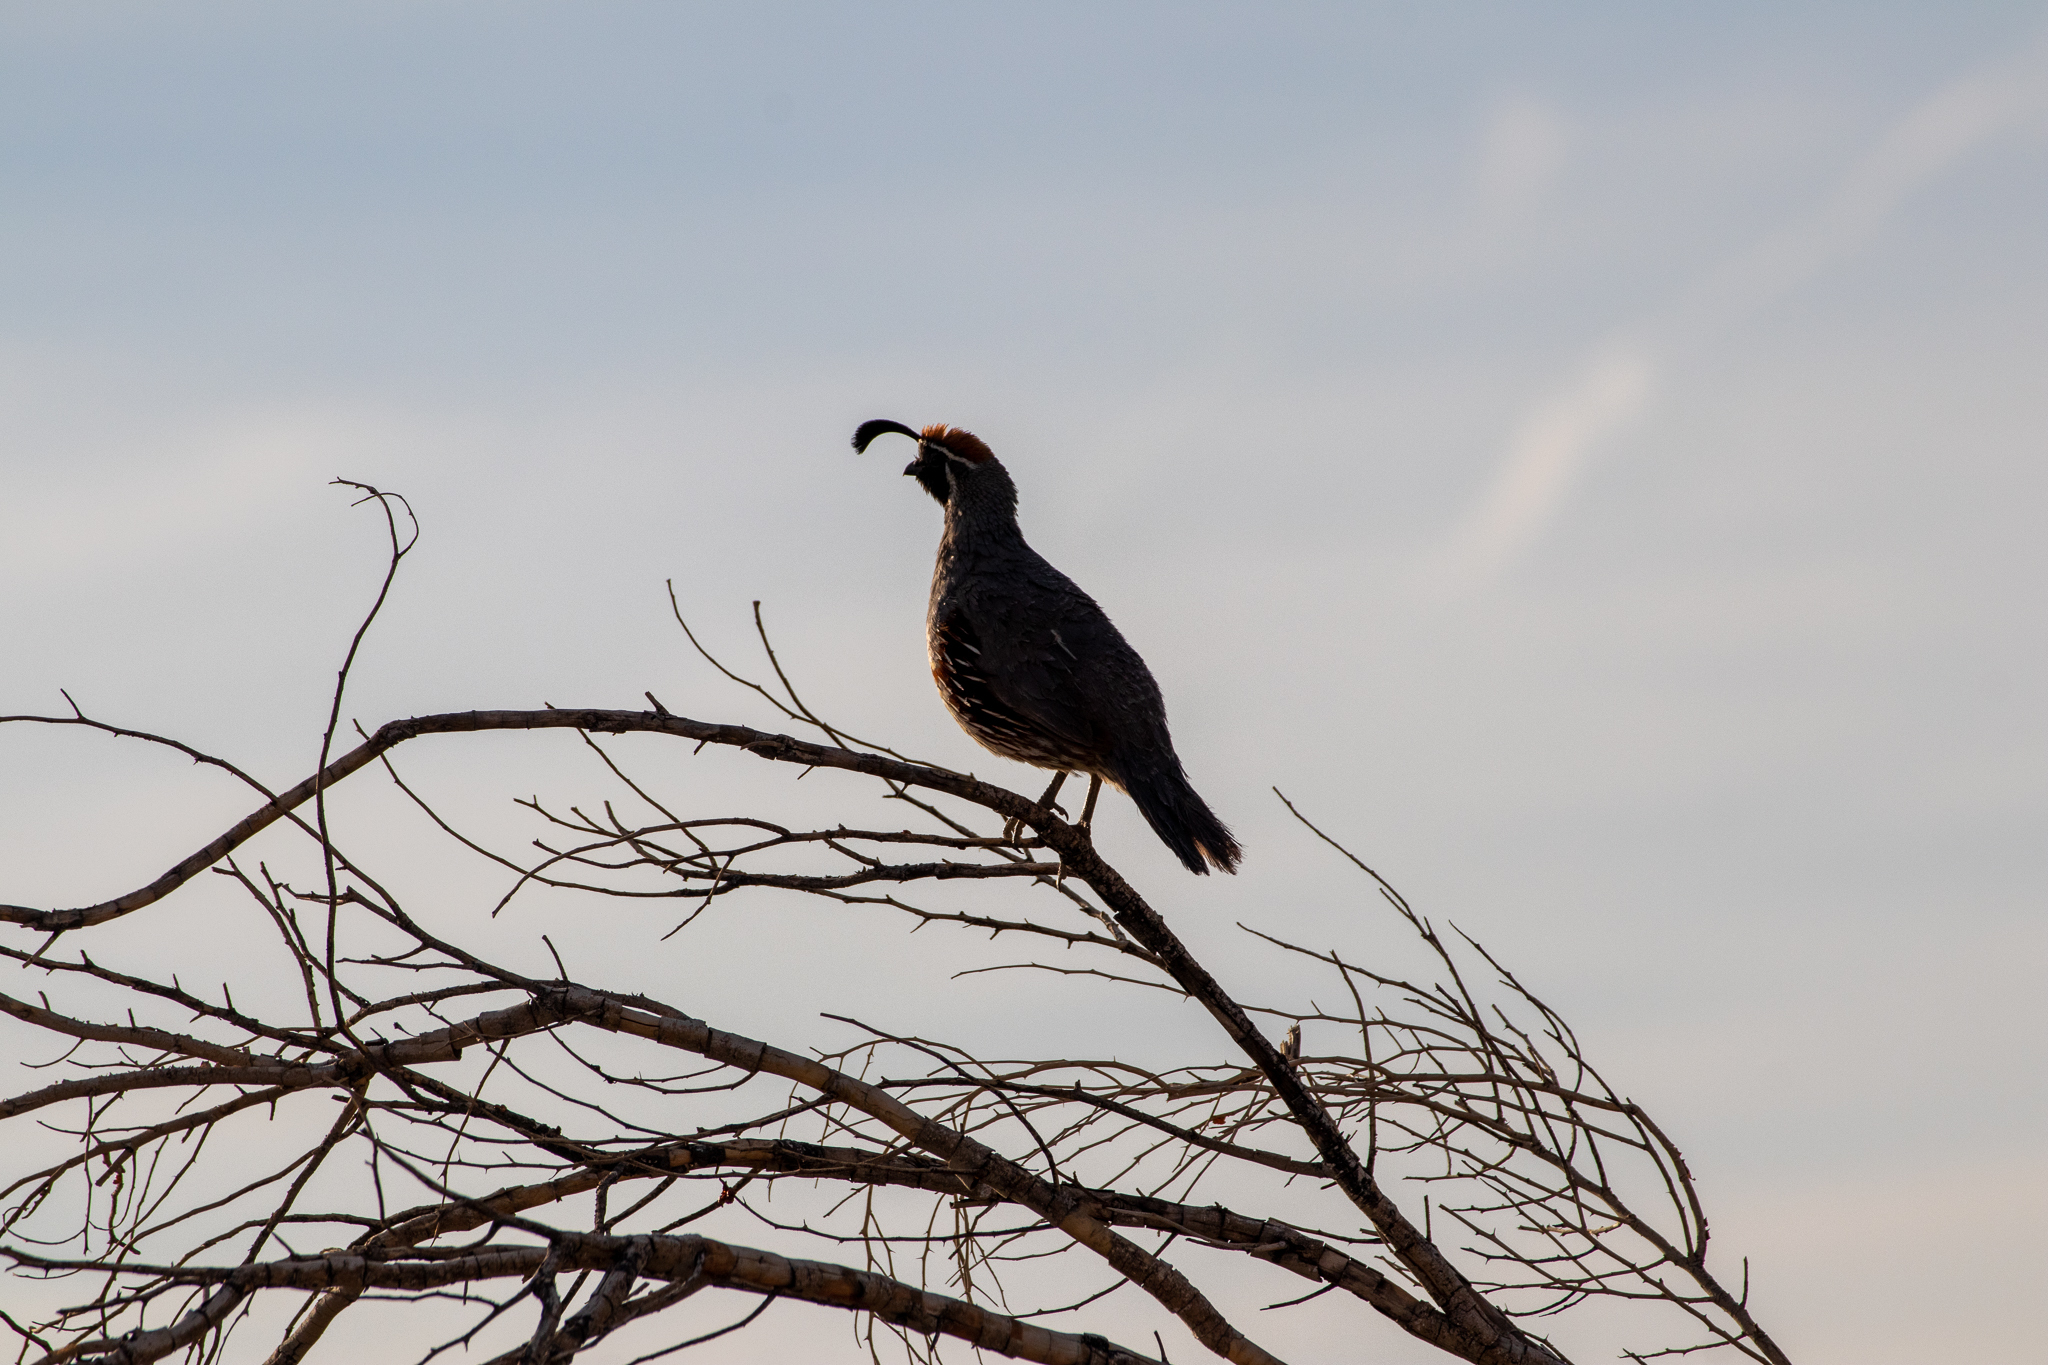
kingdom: Animalia
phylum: Chordata
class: Aves
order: Galliformes
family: Odontophoridae
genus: Callipepla
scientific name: Callipepla gambelii
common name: Gambel's quail
